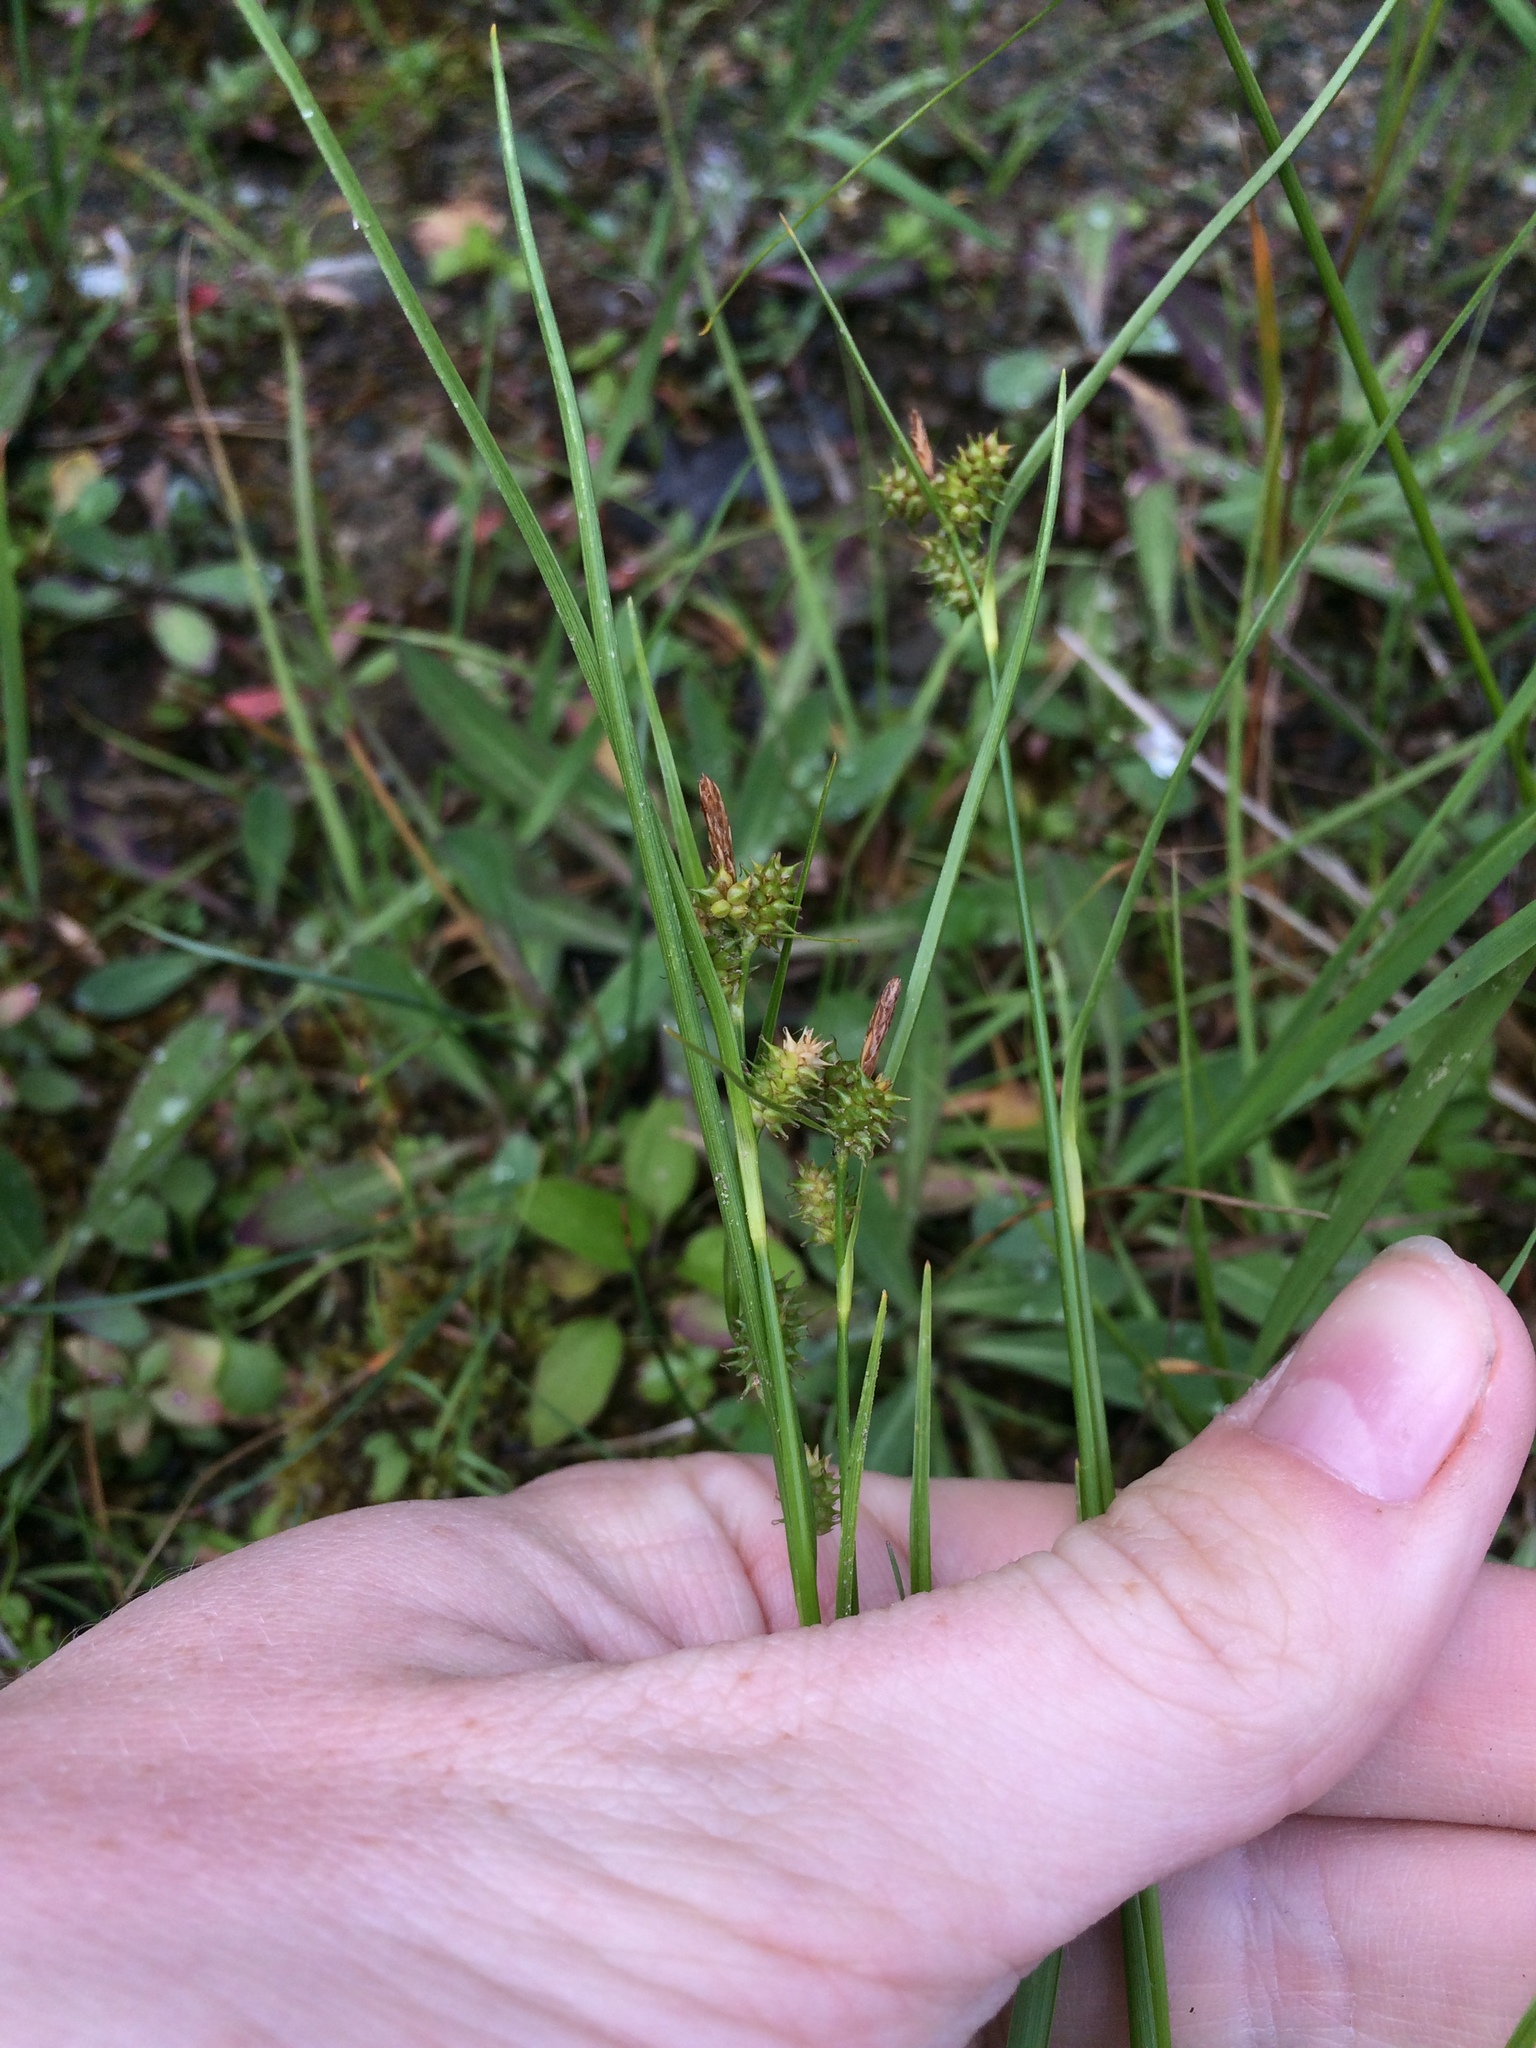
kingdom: Plantae
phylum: Tracheophyta
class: Liliopsida
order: Poales
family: Cyperaceae
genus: Carex
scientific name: Carex
